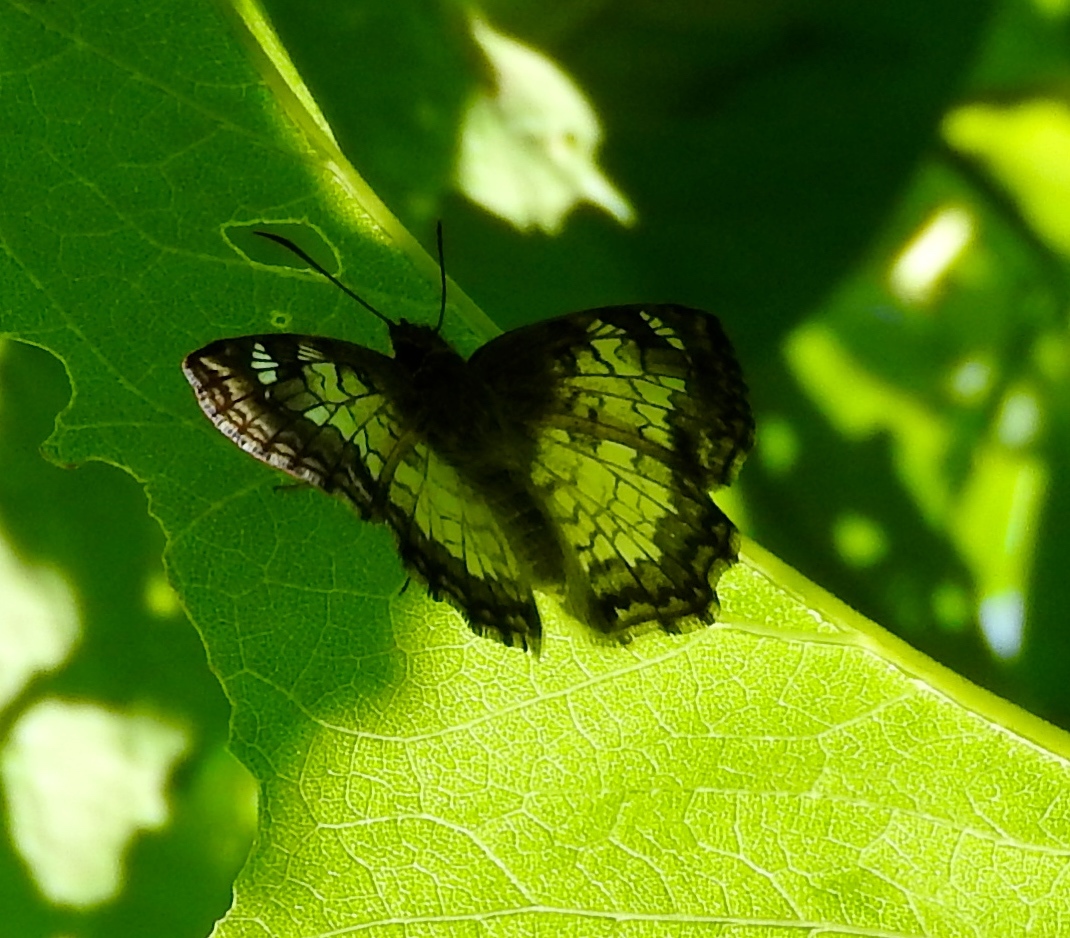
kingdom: Animalia
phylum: Arthropoda
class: Insecta
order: Lepidoptera
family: Hesperiidae
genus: Antigonus
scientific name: Antigonus emorsa
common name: White spurwing
